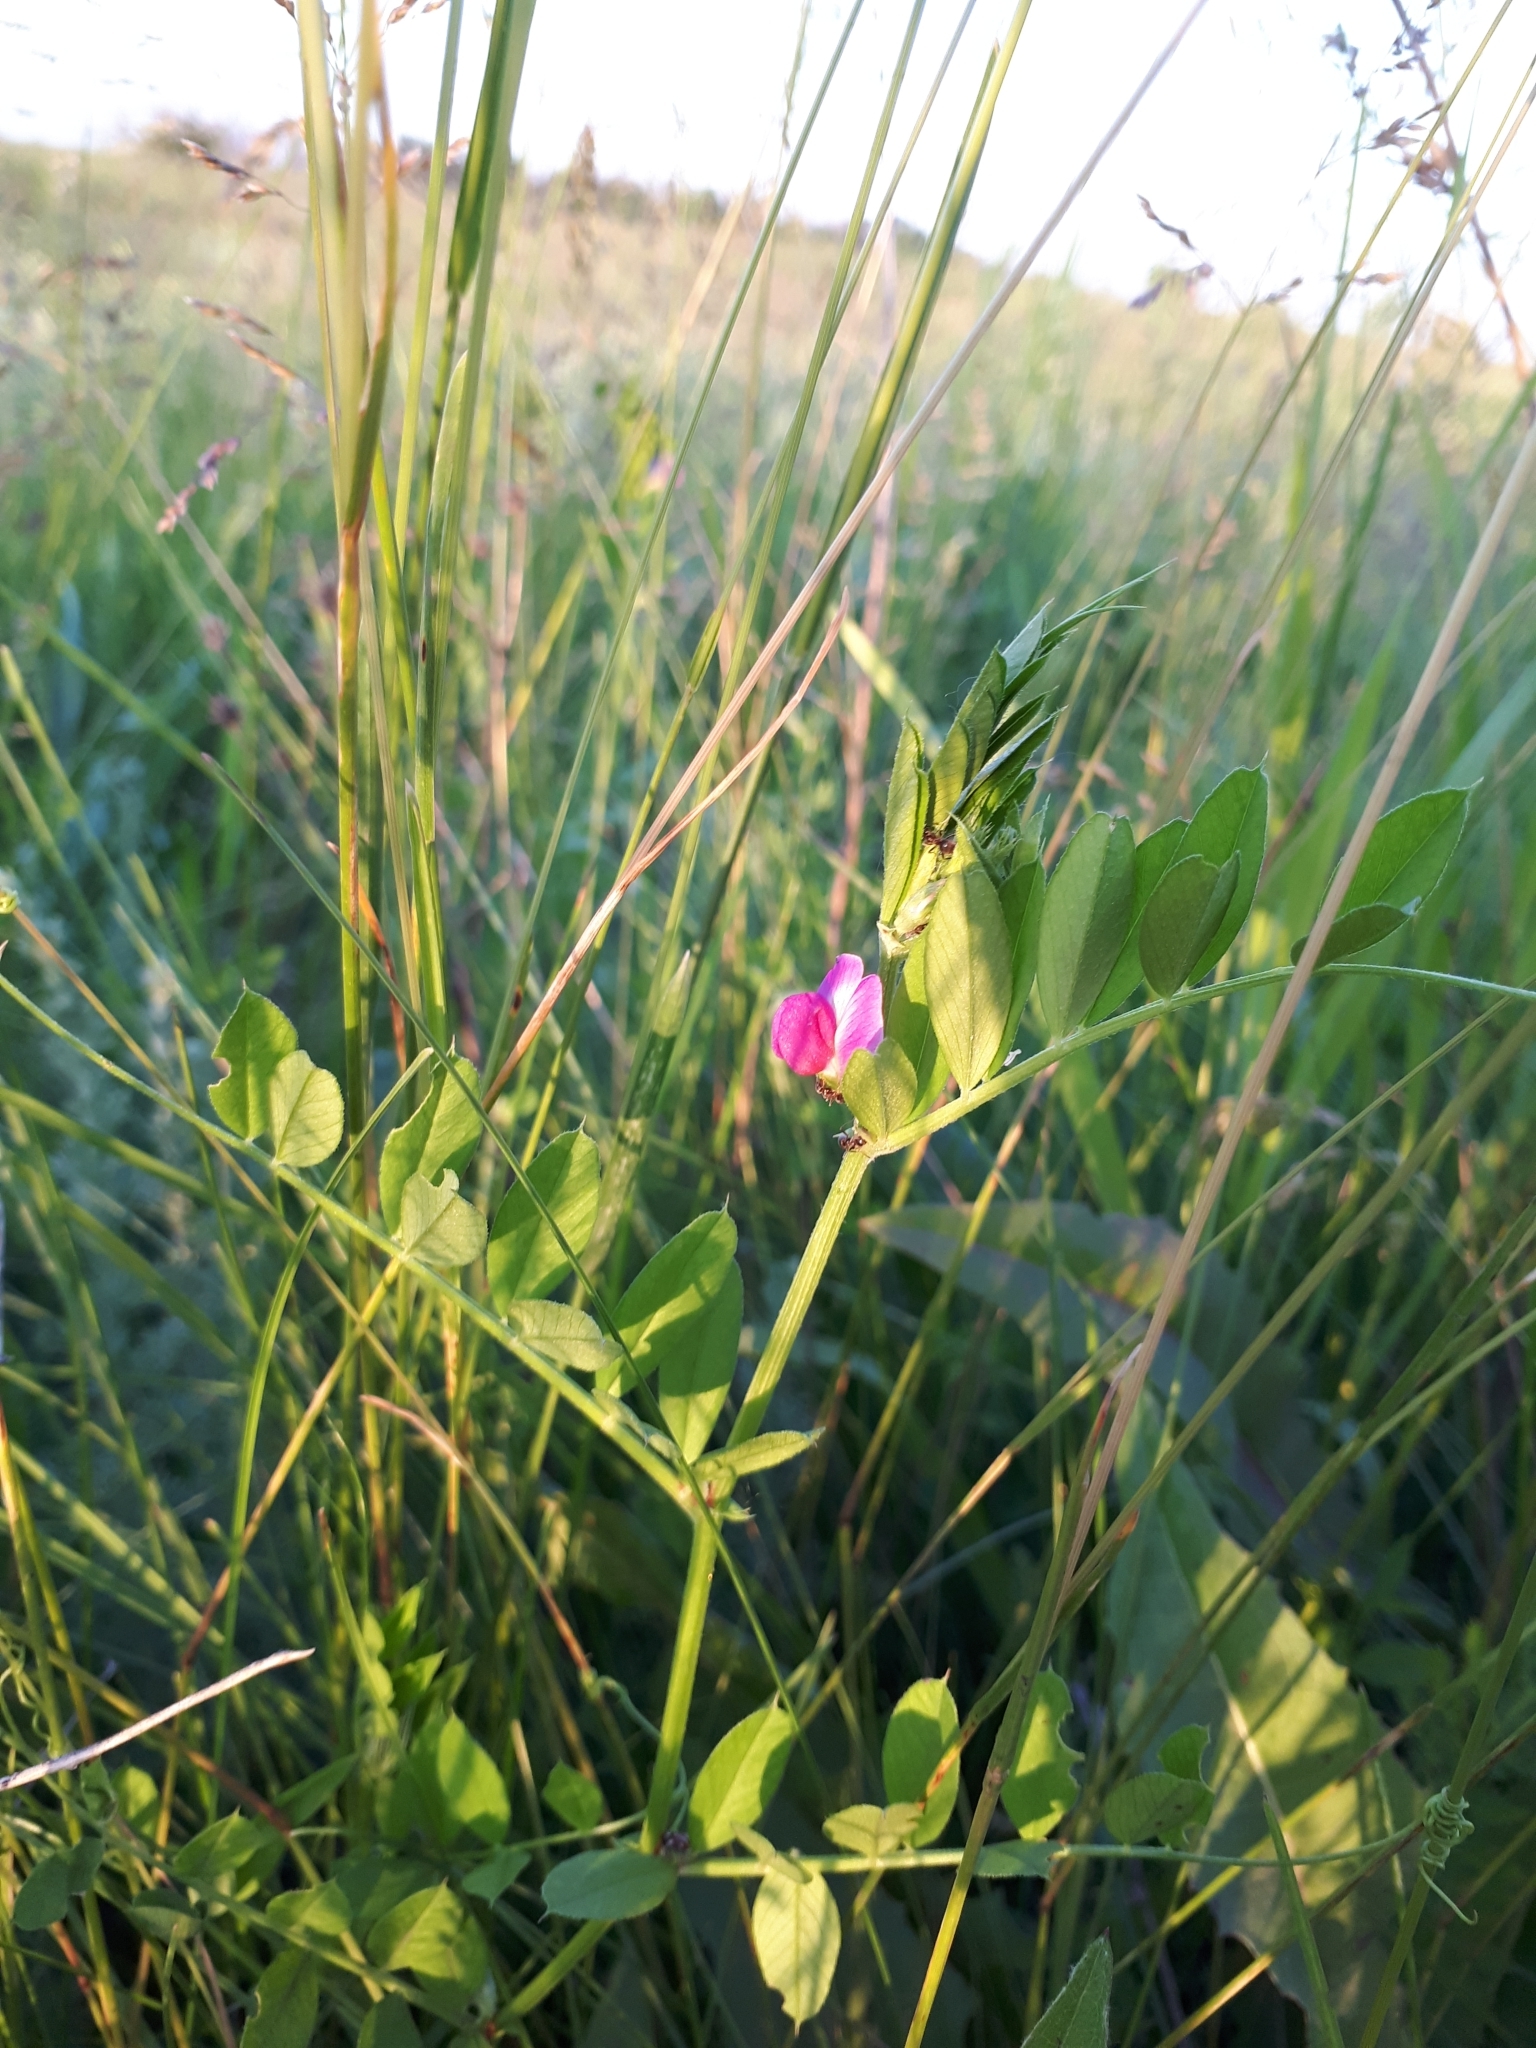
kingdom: Plantae
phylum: Tracheophyta
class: Magnoliopsida
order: Fabales
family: Fabaceae
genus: Vicia
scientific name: Vicia sativa
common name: Garden vetch
